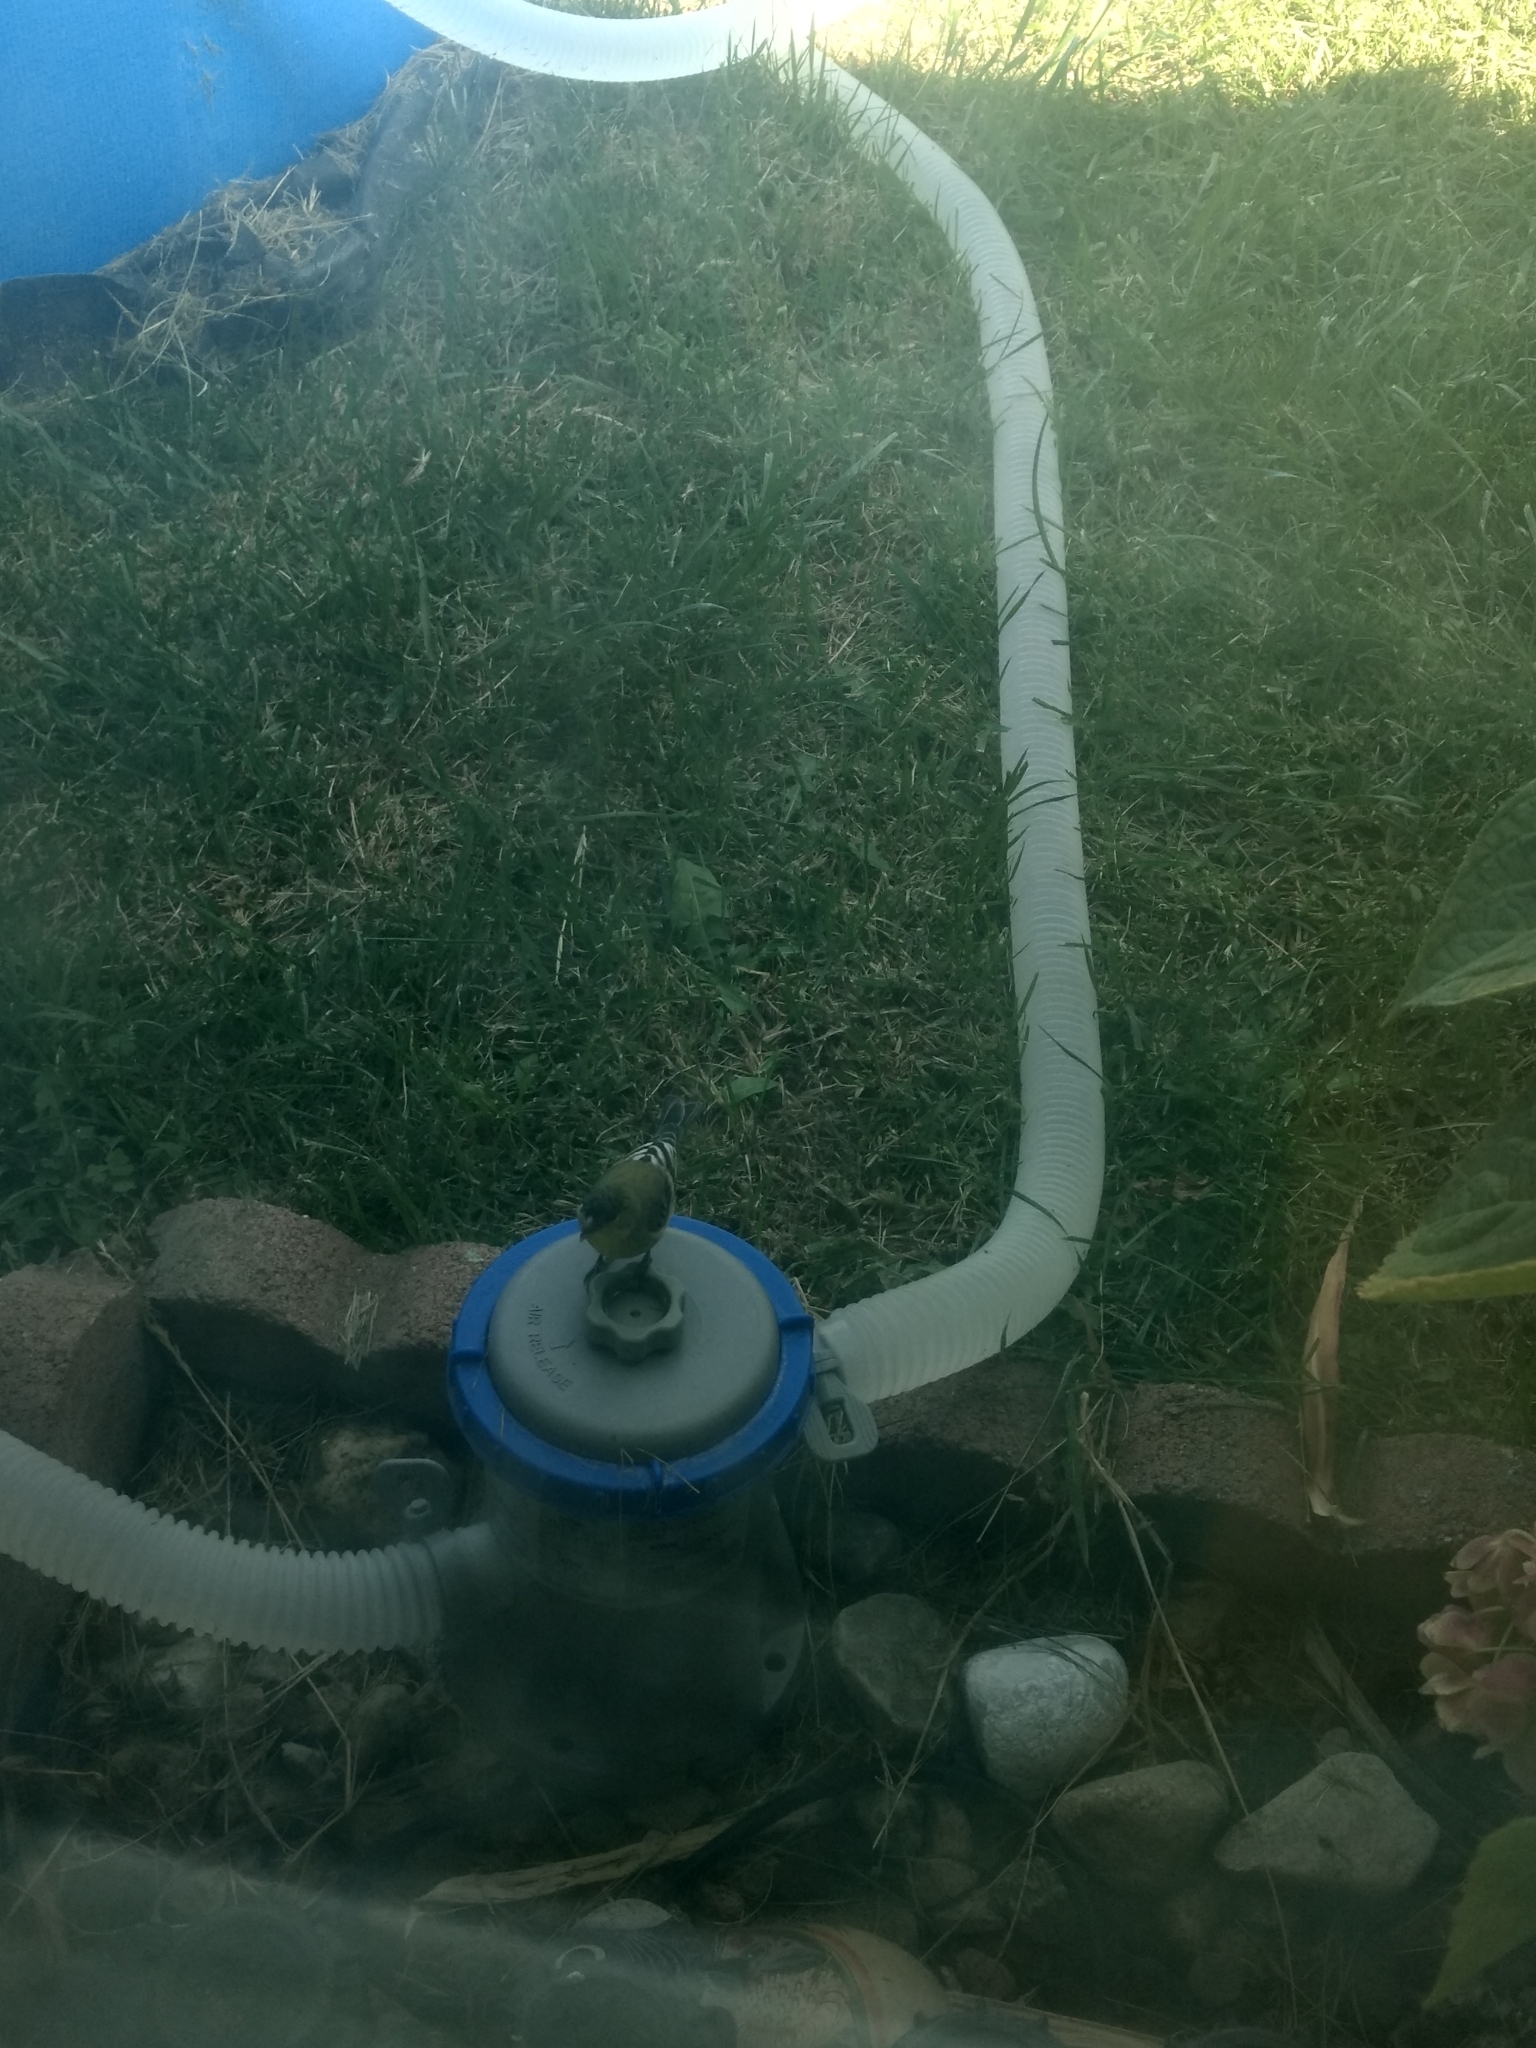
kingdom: Animalia
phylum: Chordata
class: Aves
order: Passeriformes
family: Fringillidae
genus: Spinus
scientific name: Spinus psaltria
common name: Lesser goldfinch
